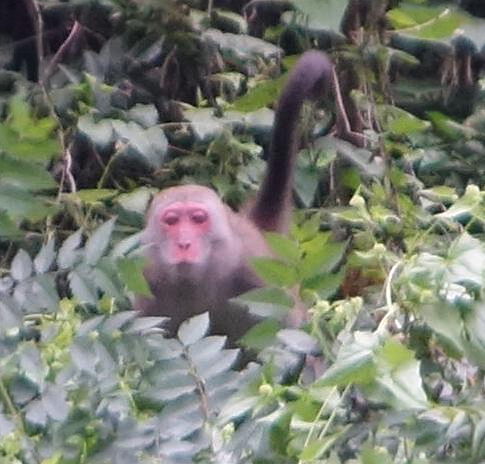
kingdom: Animalia
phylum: Chordata
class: Mammalia
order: Primates
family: Cercopithecidae
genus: Macaca
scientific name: Macaca cyclopis
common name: Formosan rock macaque
